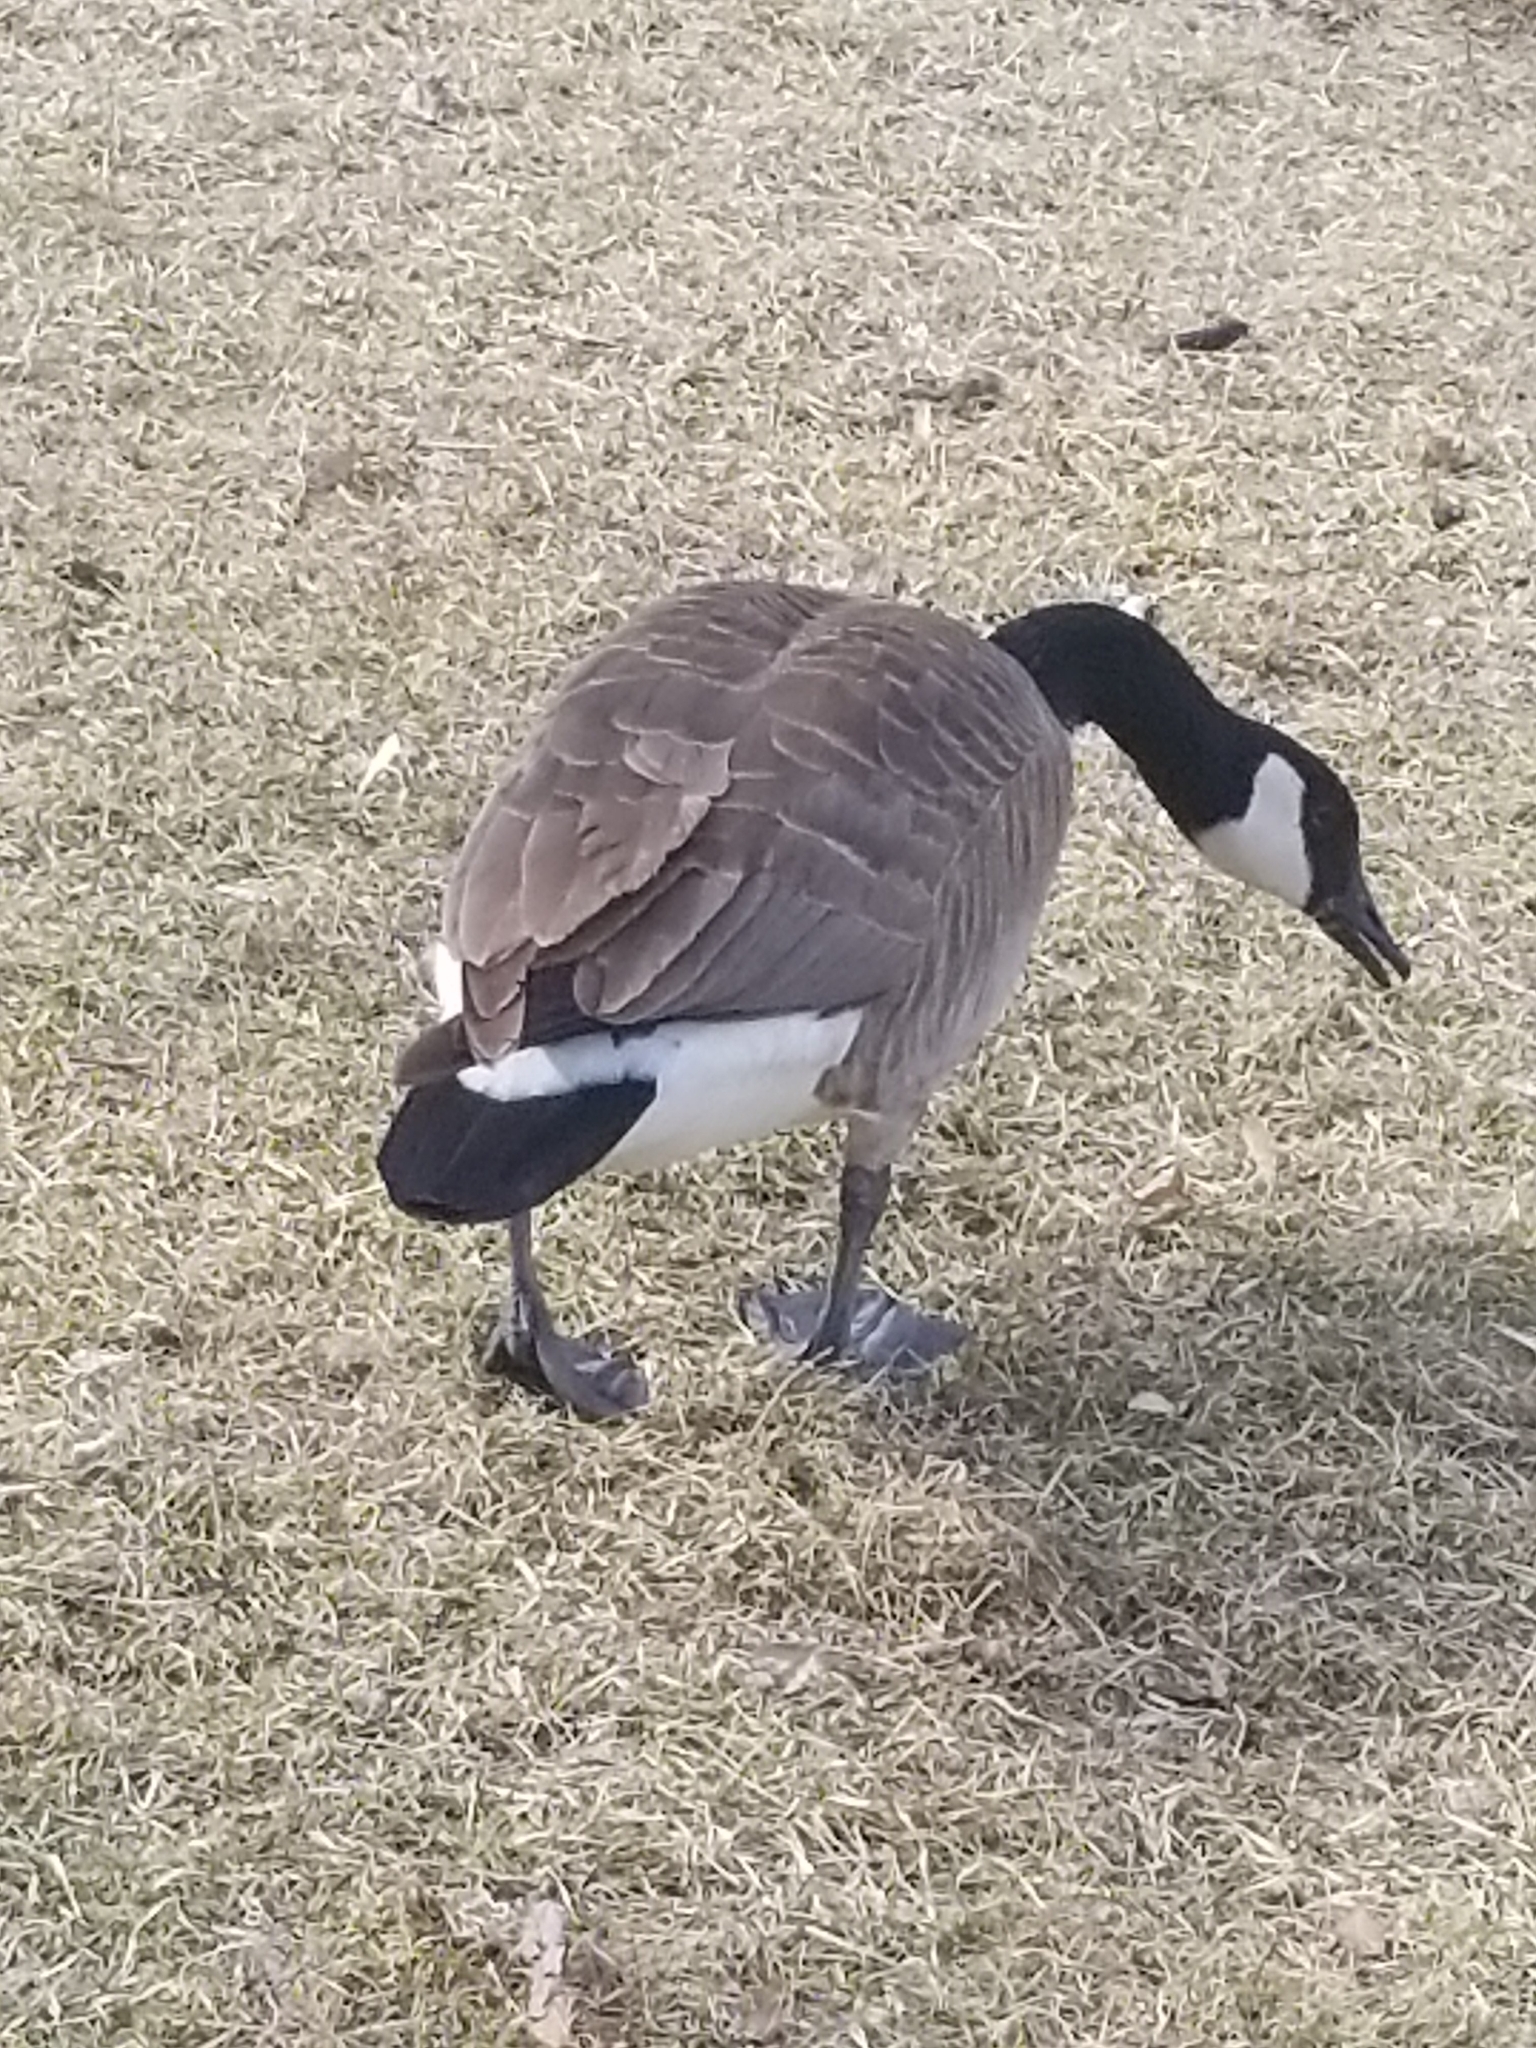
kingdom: Animalia
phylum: Chordata
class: Aves
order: Anseriformes
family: Anatidae
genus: Branta
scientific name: Branta canadensis
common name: Canada goose
